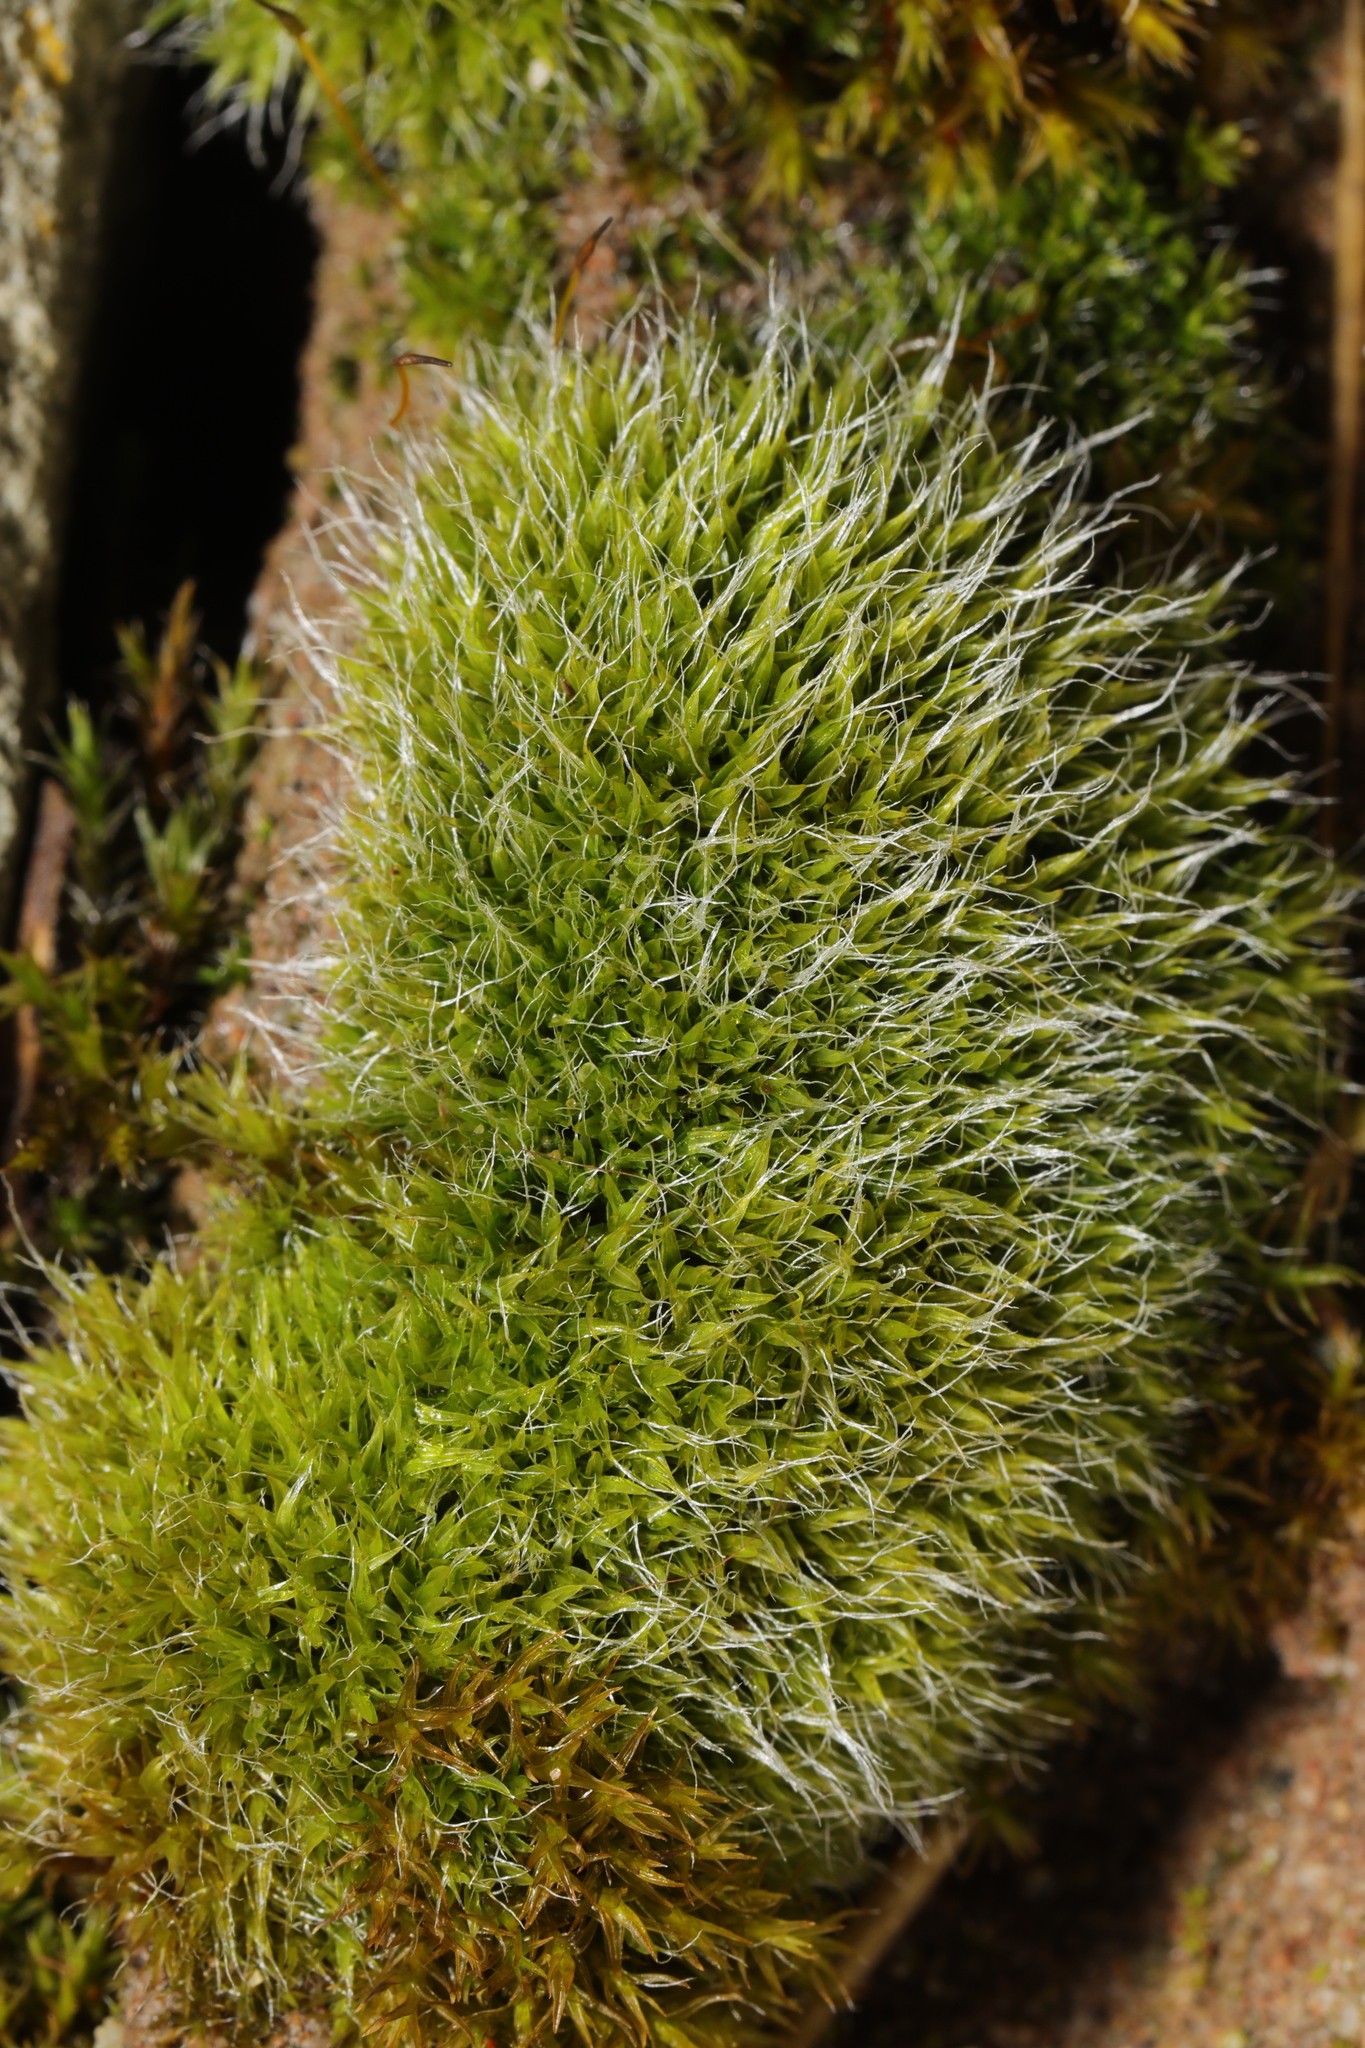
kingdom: Plantae
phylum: Bryophyta
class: Bryopsida
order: Grimmiales
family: Grimmiaceae
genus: Grimmia
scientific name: Grimmia pulvinata
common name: Grey-cushioned grimmia
